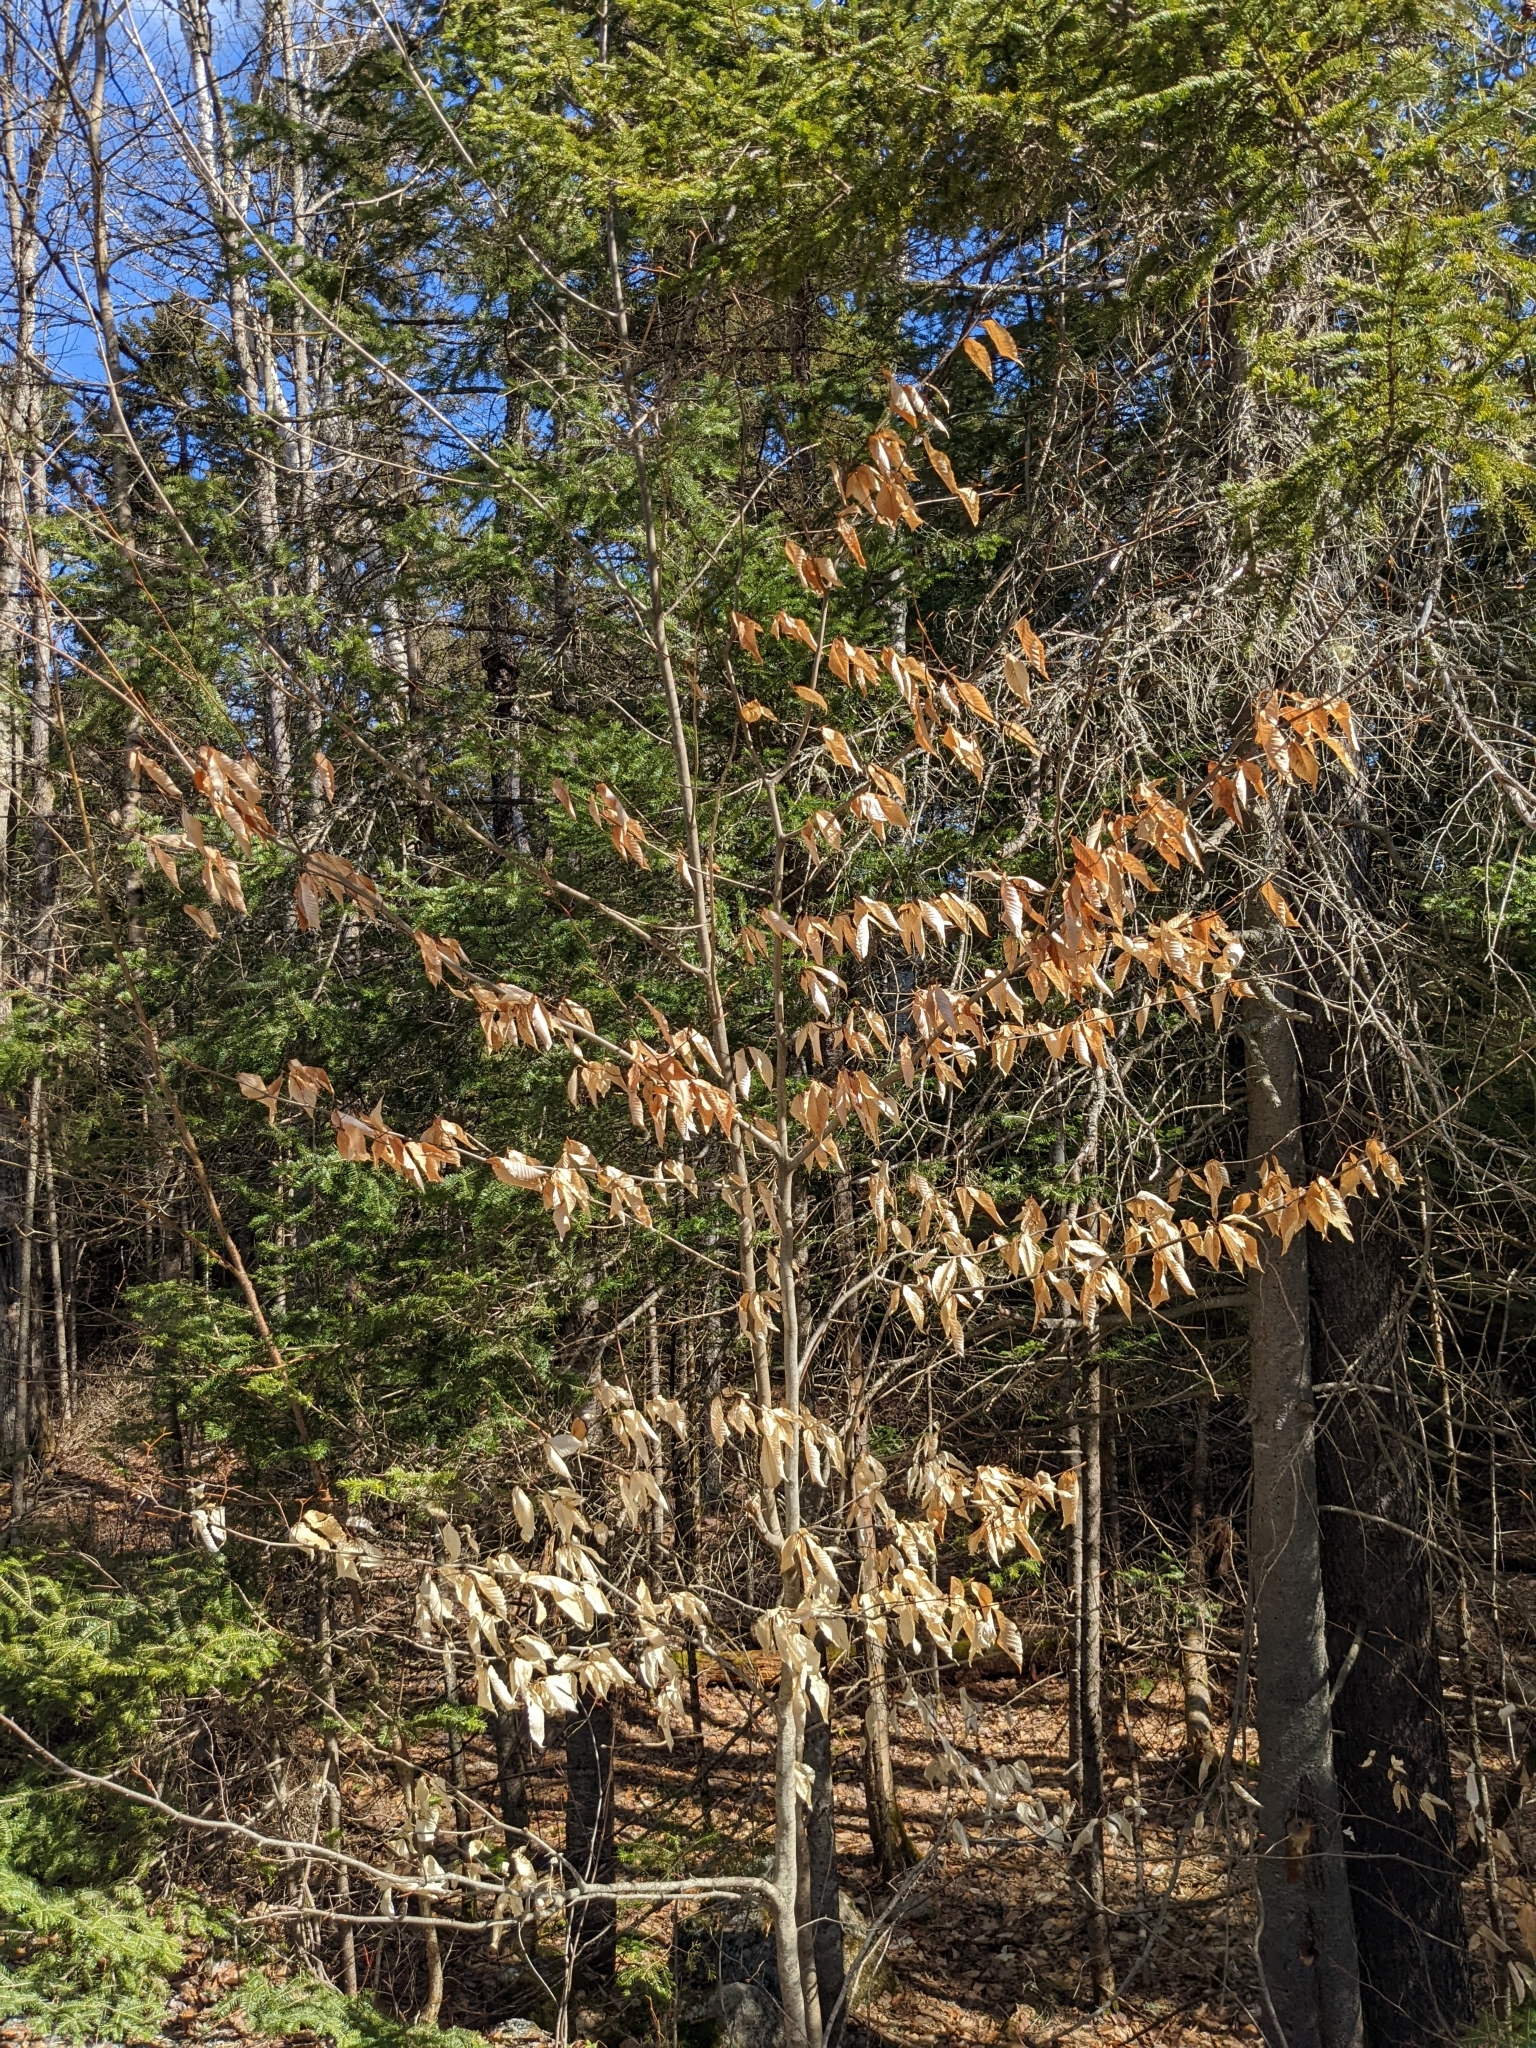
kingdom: Plantae
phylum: Tracheophyta
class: Magnoliopsida
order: Fagales
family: Fagaceae
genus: Fagus
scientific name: Fagus grandifolia
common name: American beech
